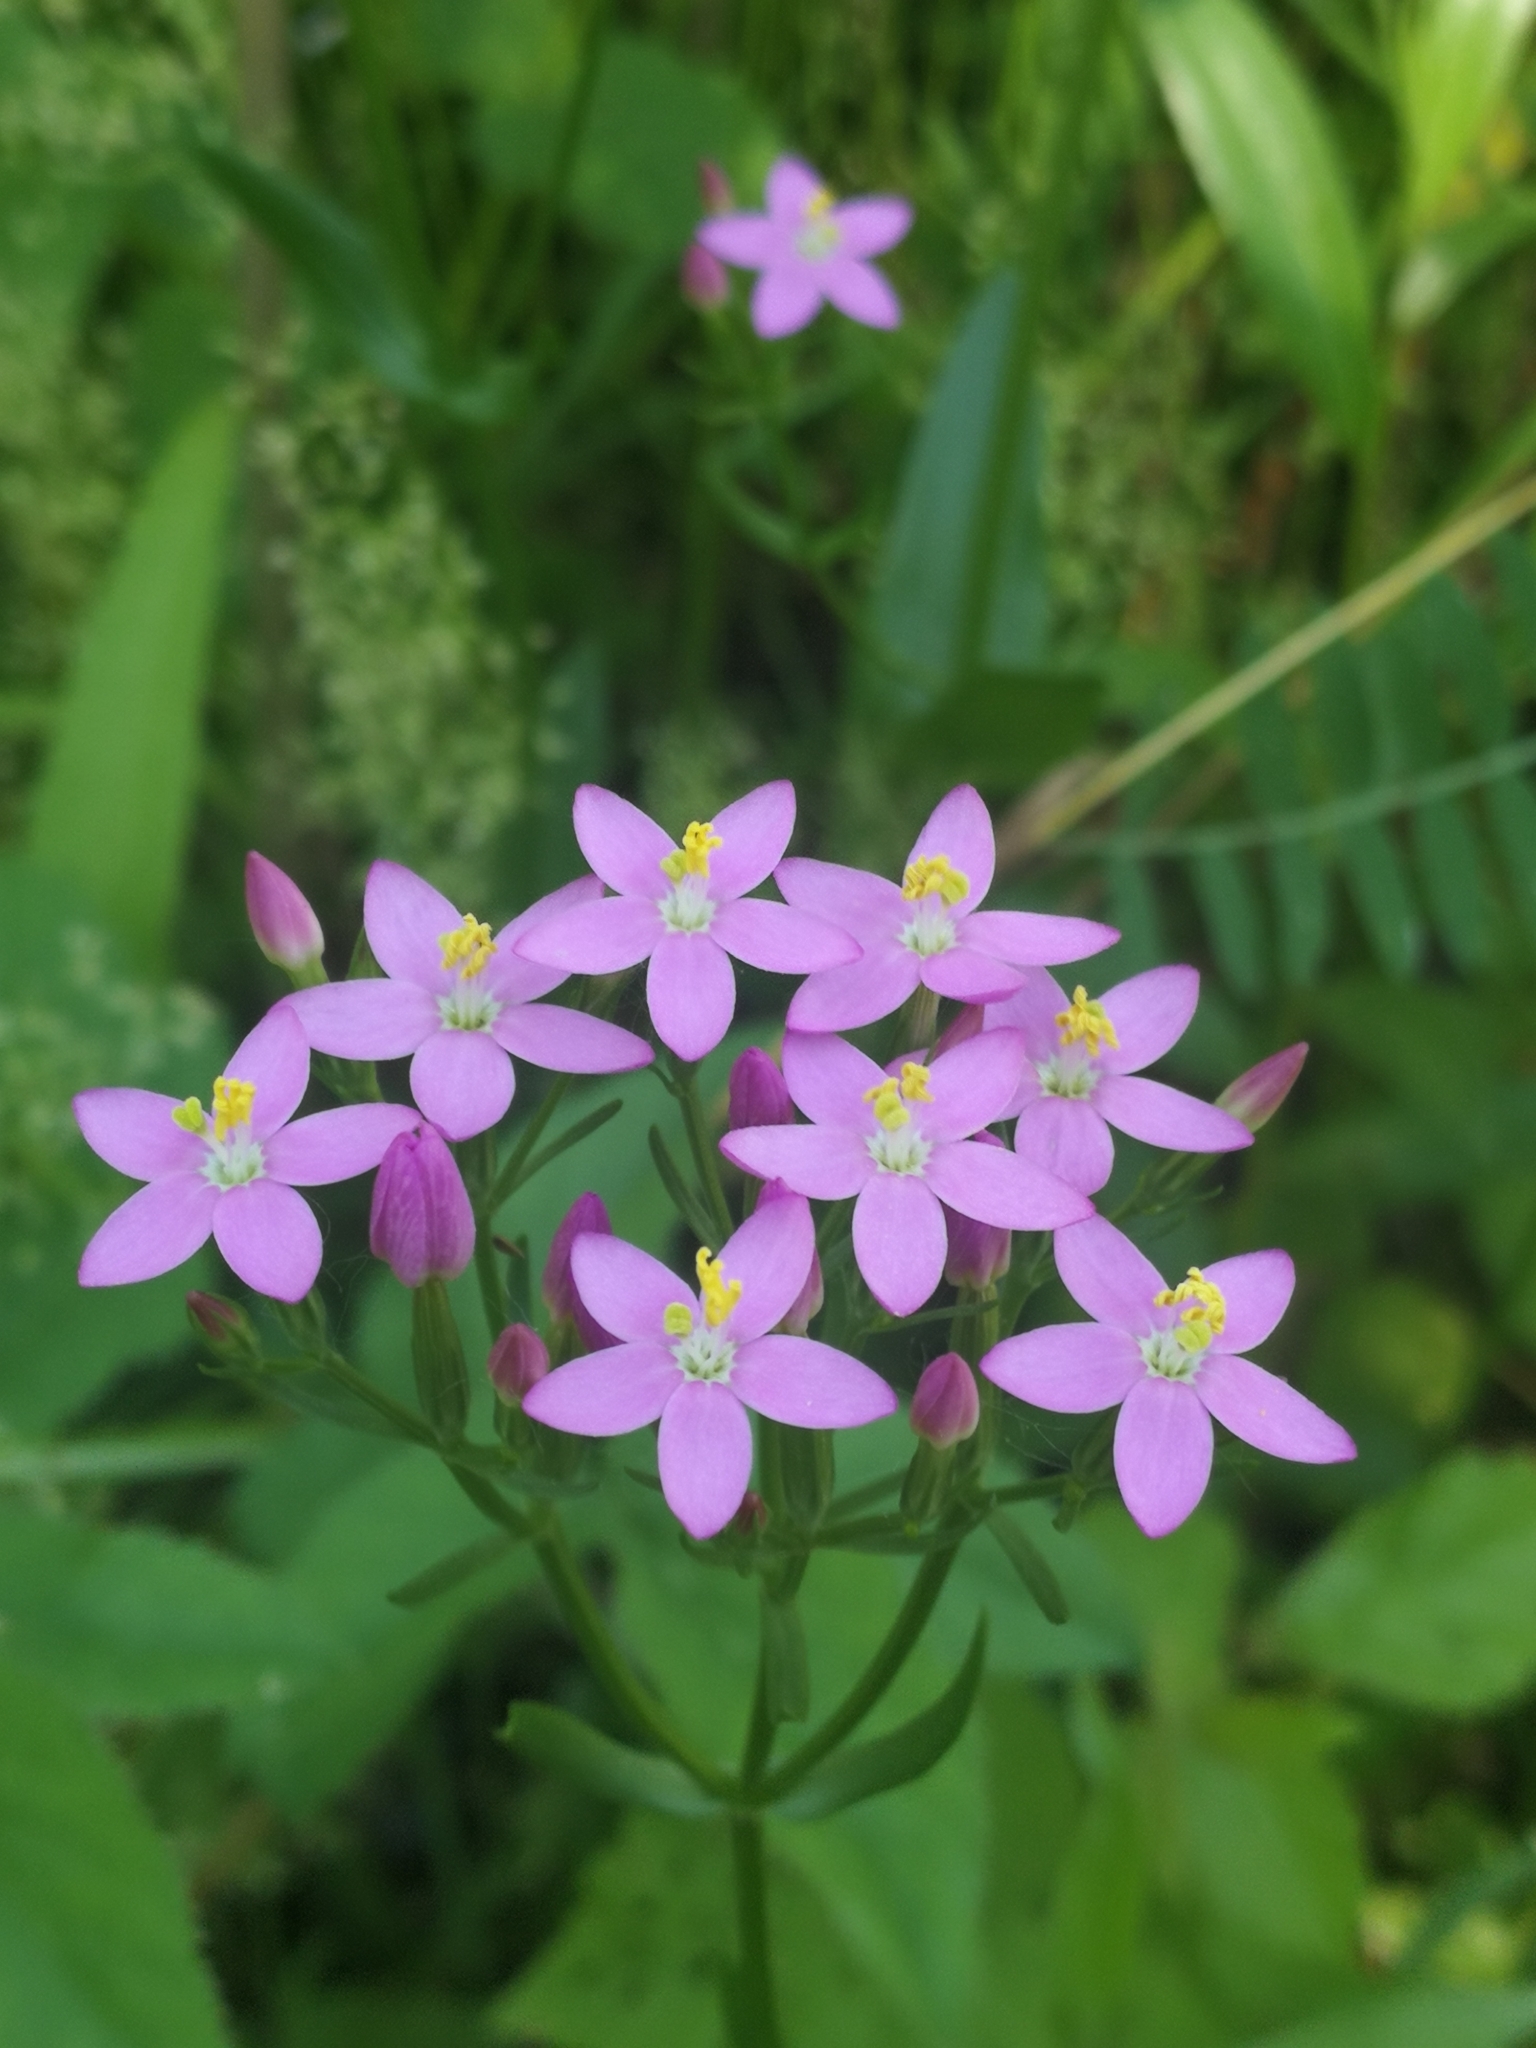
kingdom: Plantae
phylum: Tracheophyta
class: Magnoliopsida
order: Gentianales
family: Gentianaceae
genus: Centaurium
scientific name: Centaurium erythraea
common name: Common centaury
